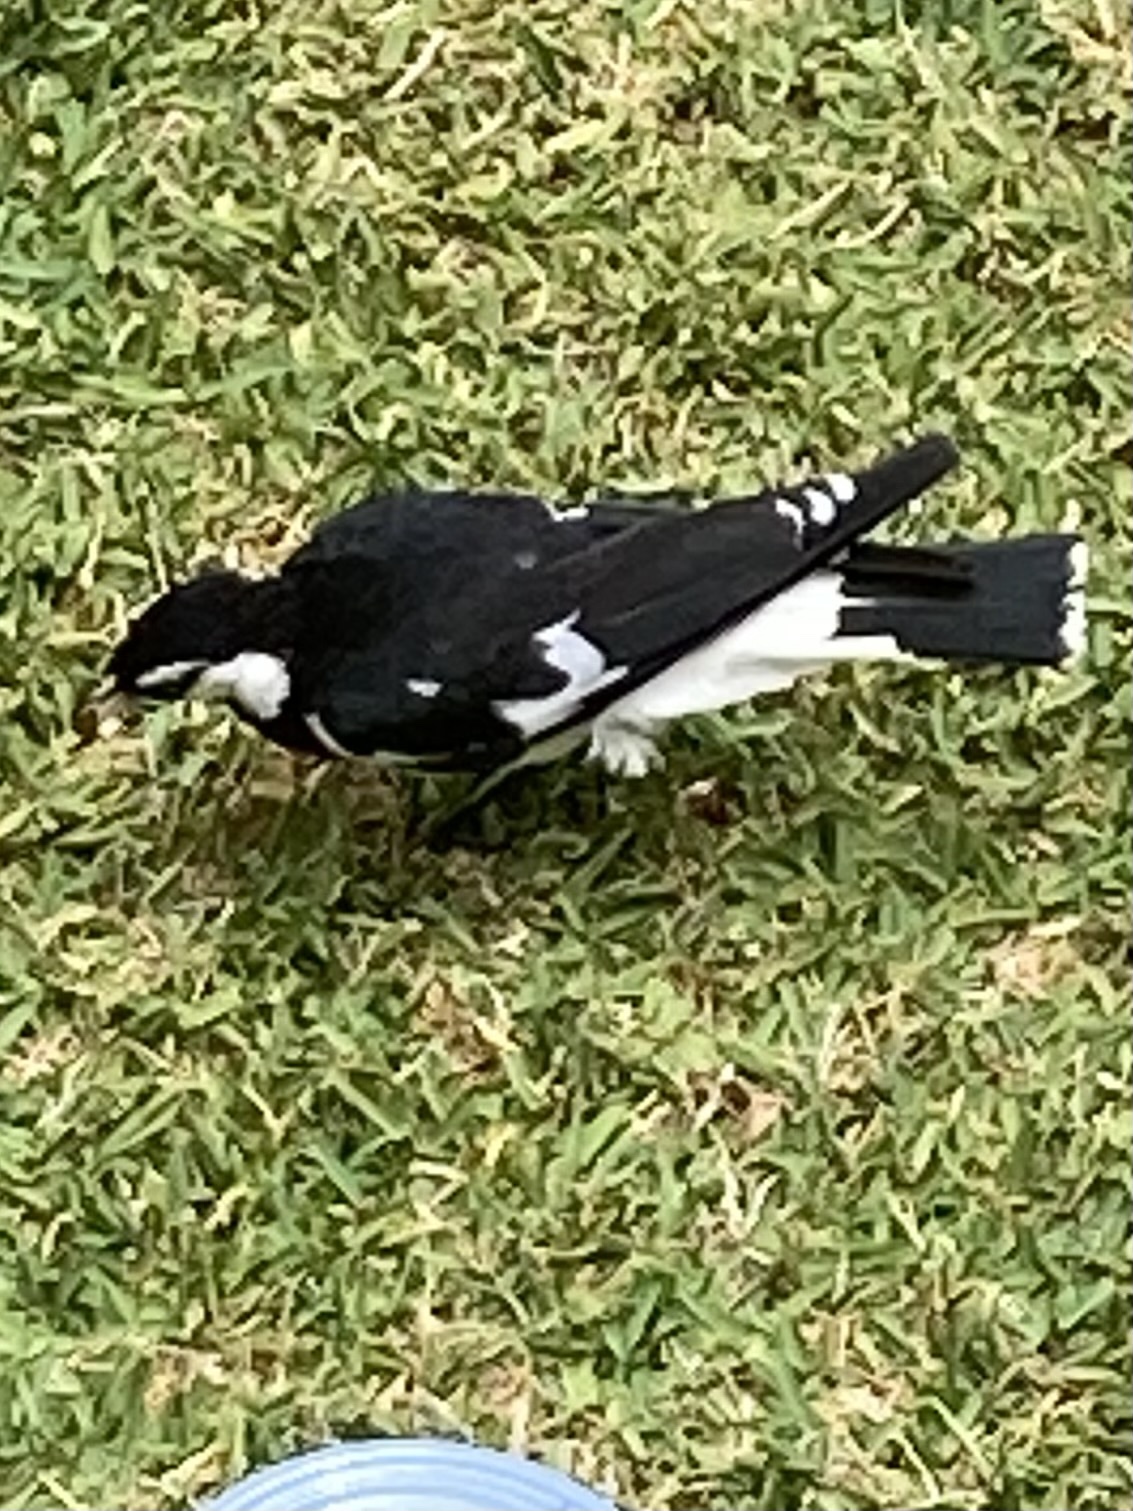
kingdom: Animalia
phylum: Chordata
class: Aves
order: Passeriformes
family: Monarchidae
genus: Grallina
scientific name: Grallina cyanoleuca
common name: Magpie-lark
